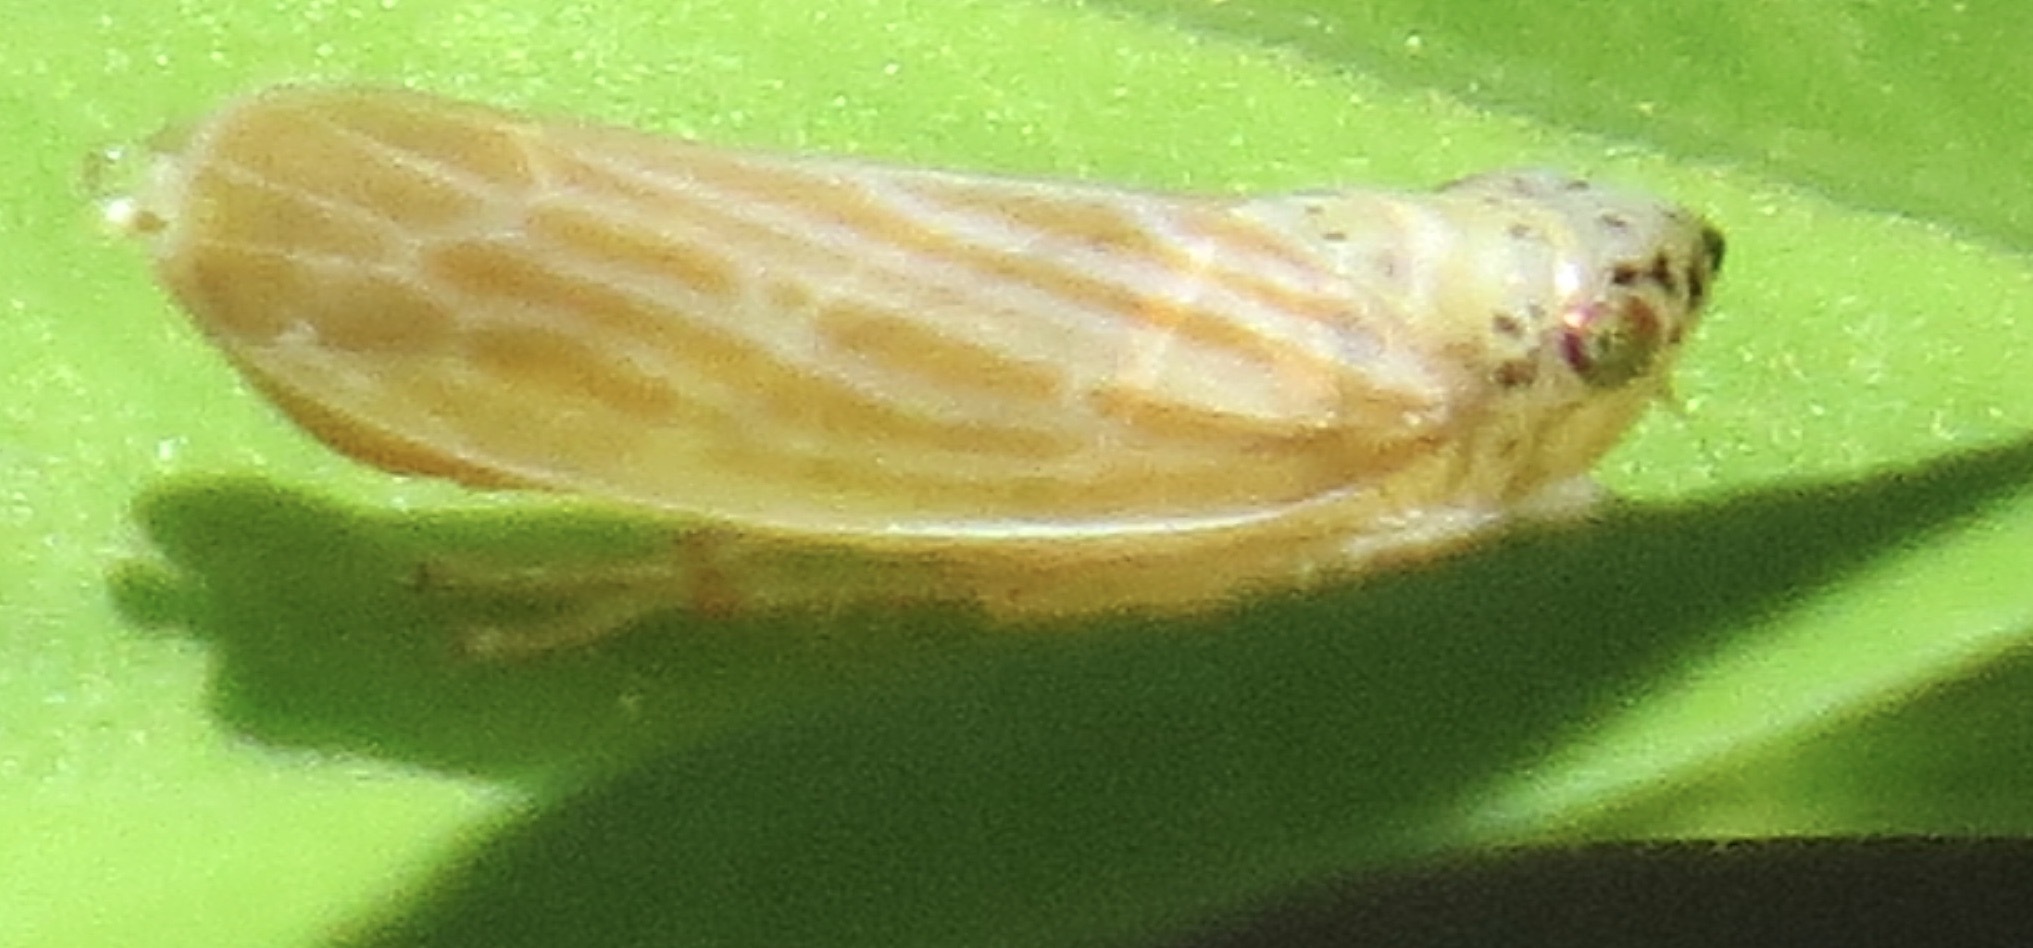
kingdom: Animalia
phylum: Arthropoda
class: Insecta
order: Hemiptera
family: Cicadellidae
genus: Pagaronia
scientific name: Pagaronia triunata
